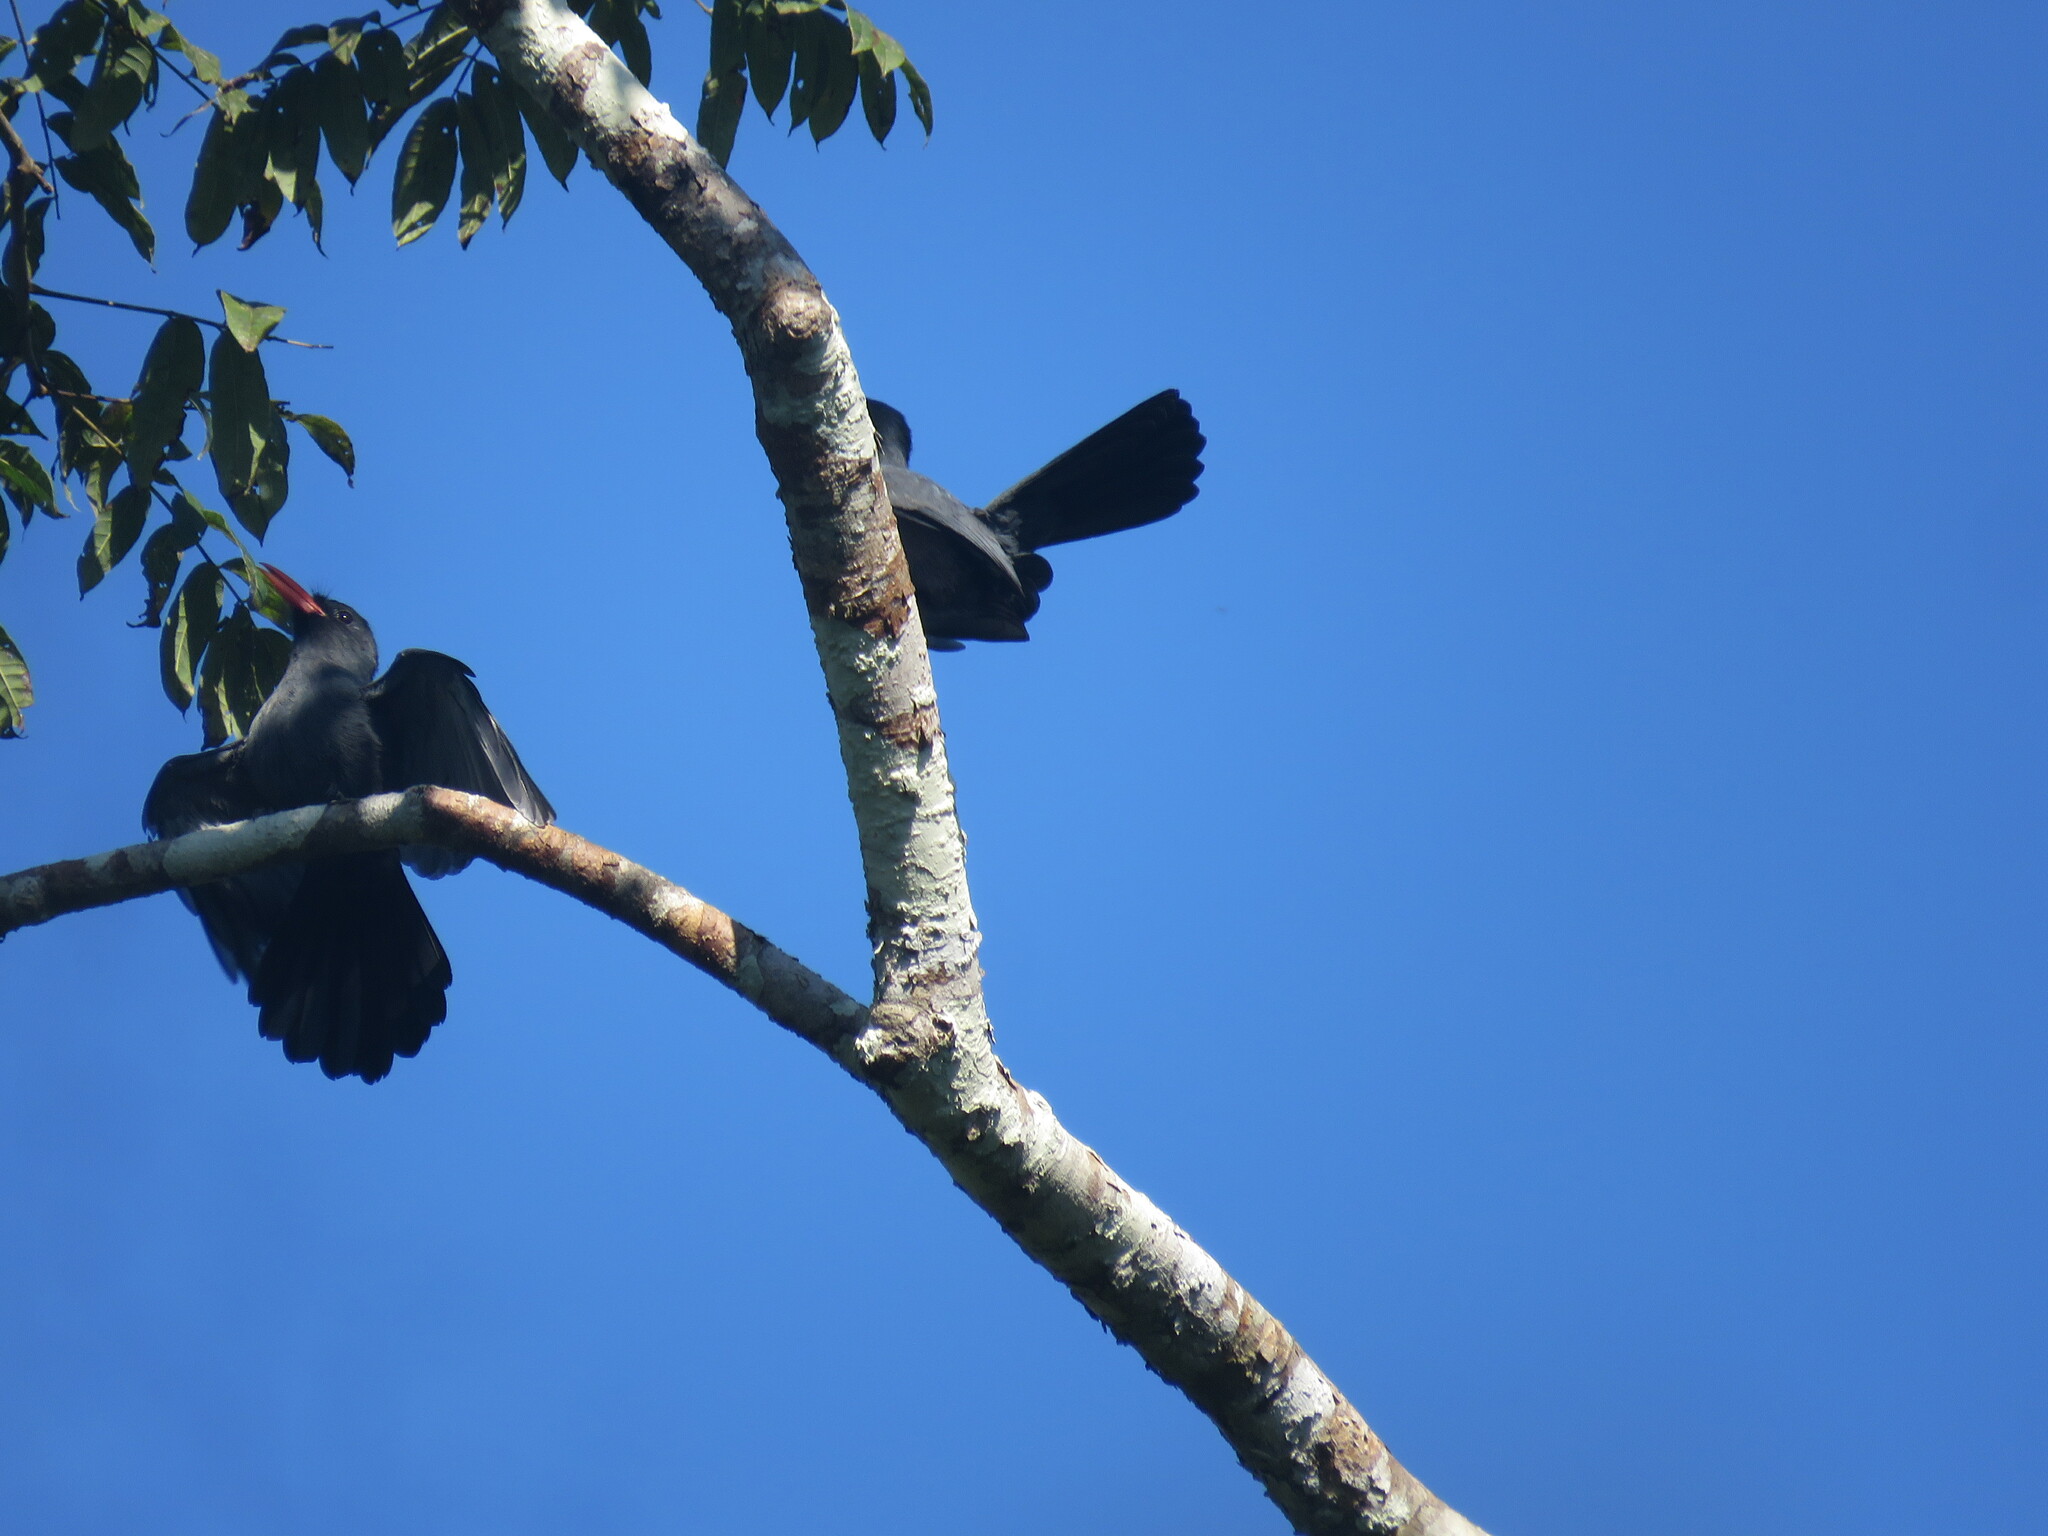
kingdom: Animalia
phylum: Chordata
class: Aves
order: Piciformes
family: Bucconidae
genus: Monasa
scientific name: Monasa nigrifrons
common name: Black-fronted nunbird
